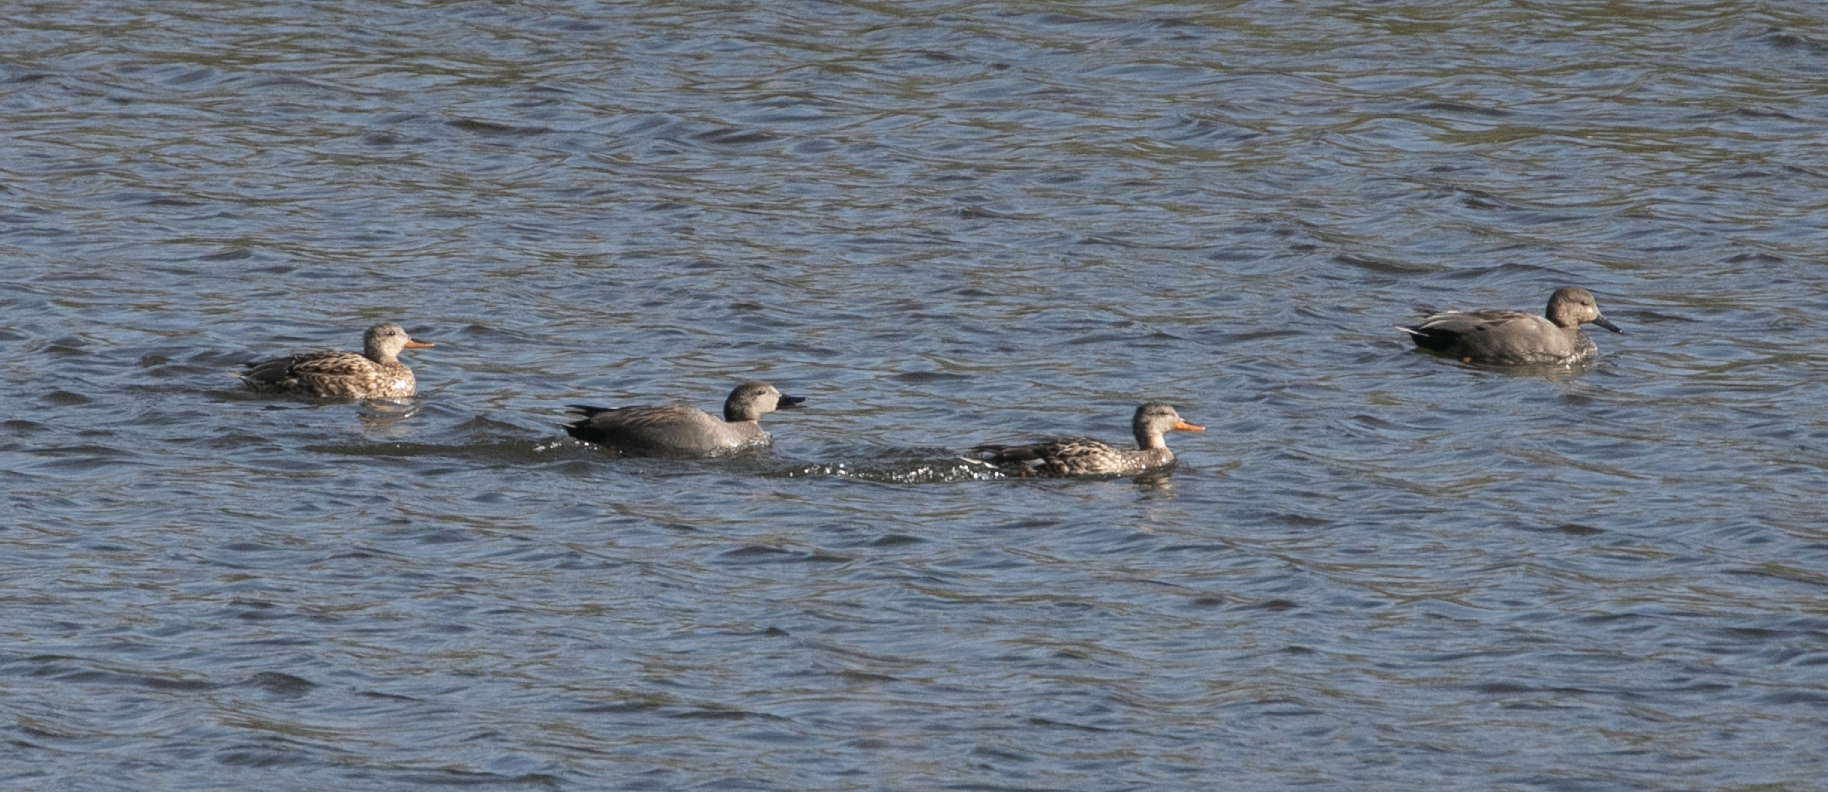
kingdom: Animalia
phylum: Chordata
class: Aves
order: Anseriformes
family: Anatidae
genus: Mareca
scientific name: Mareca strepera
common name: Gadwall
